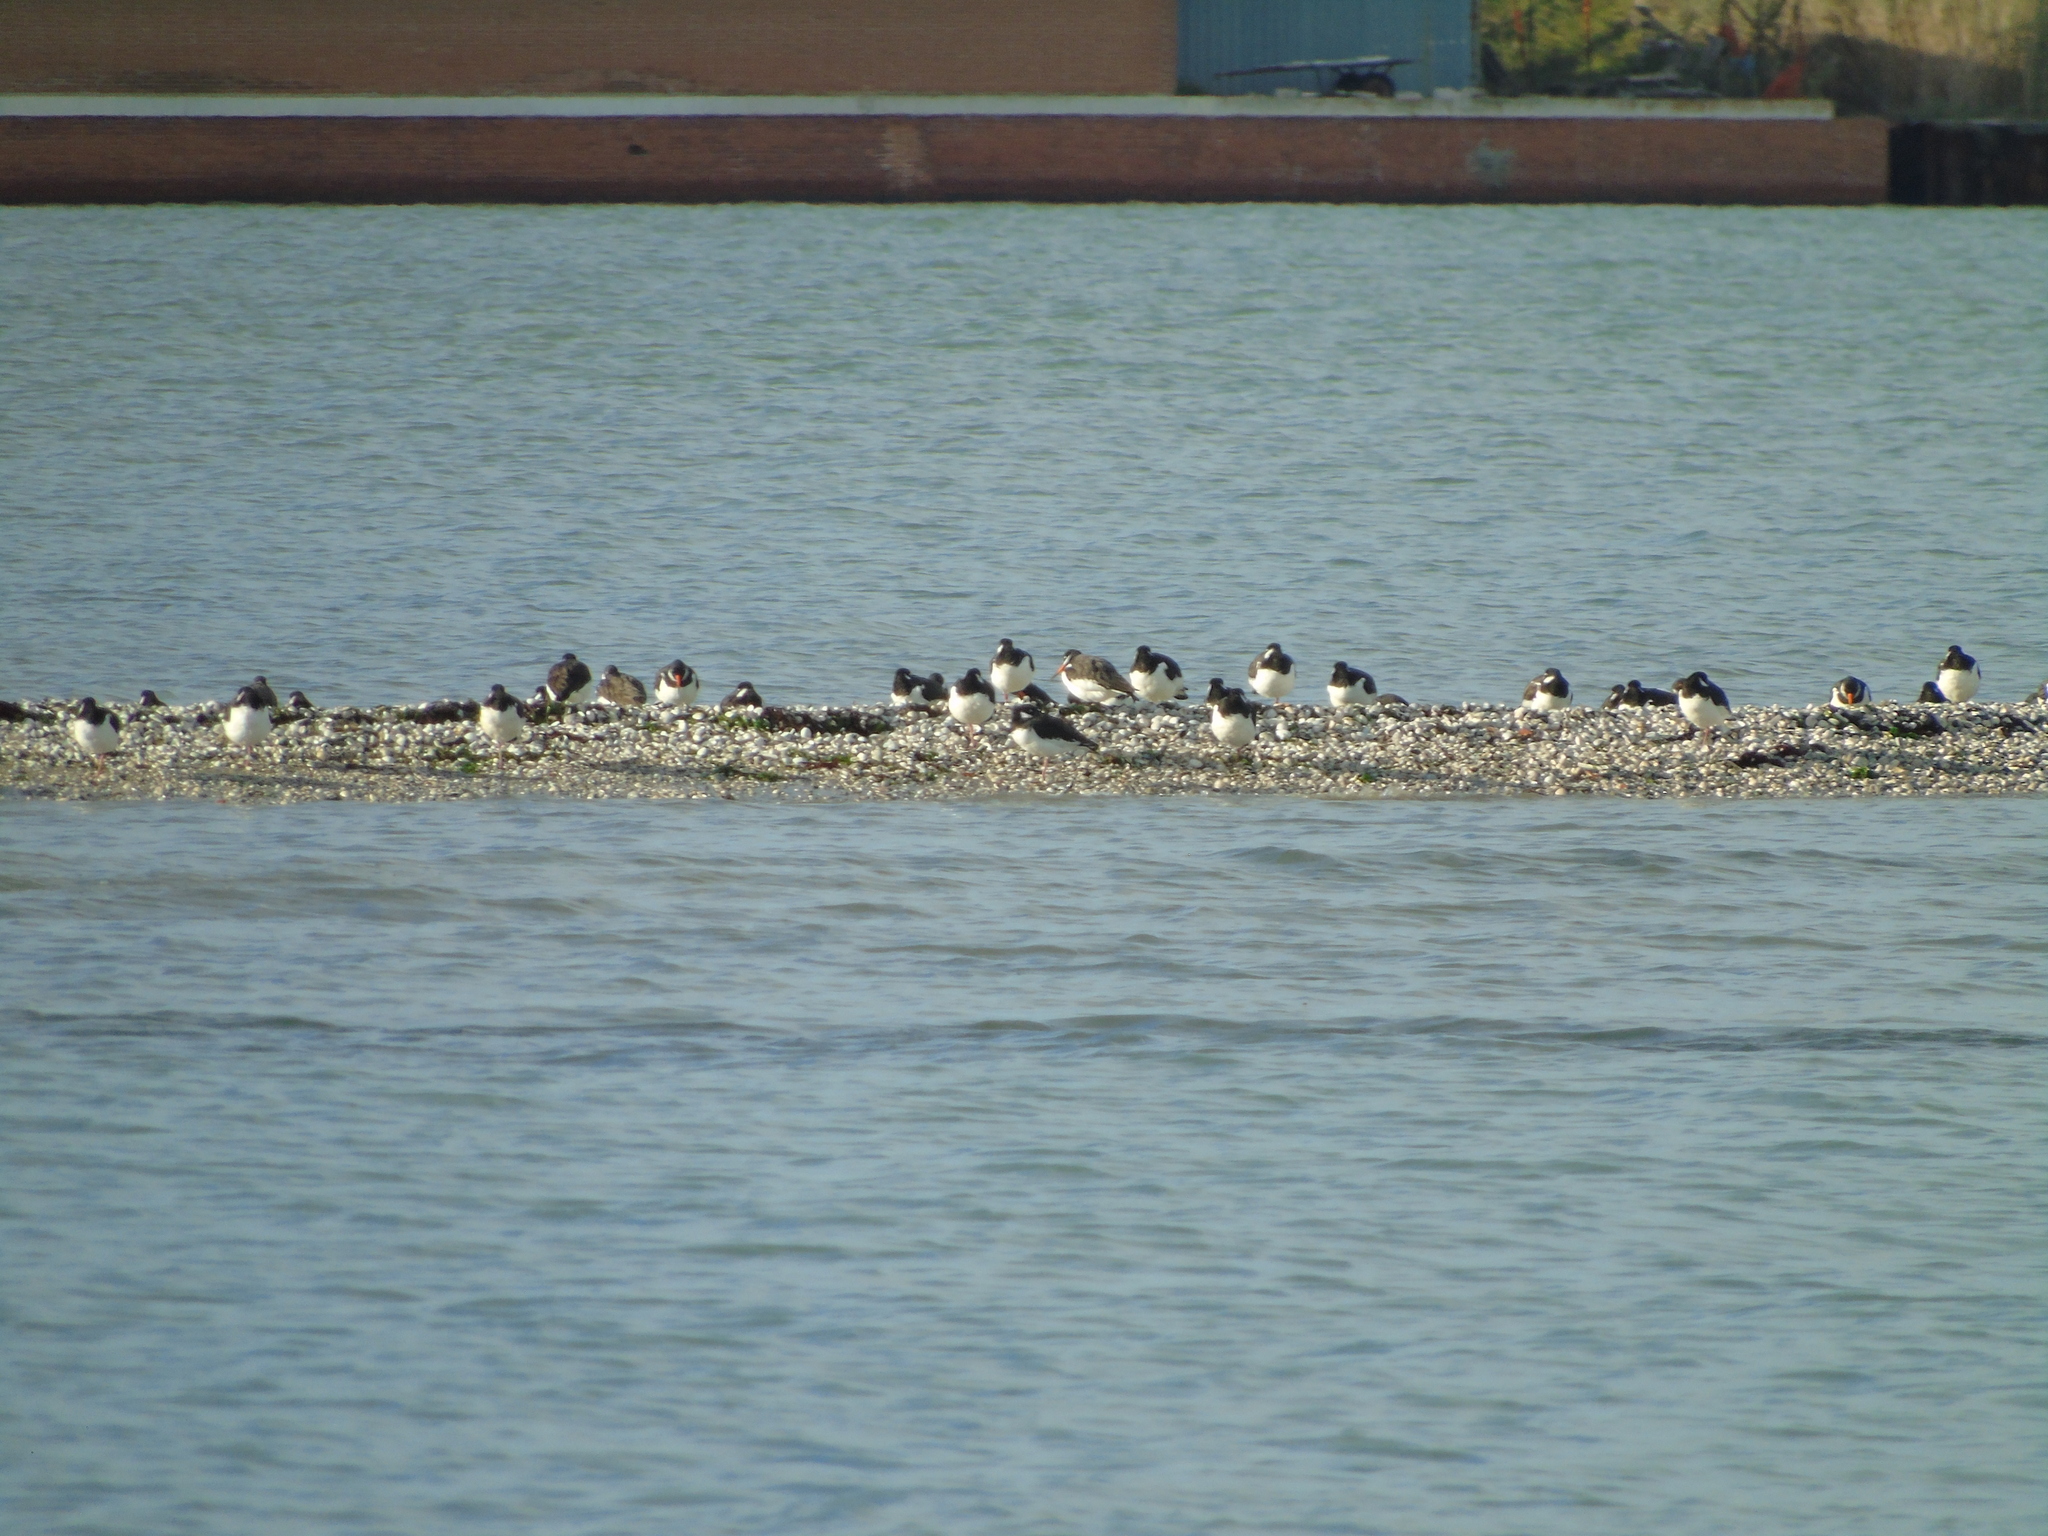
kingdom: Animalia
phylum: Chordata
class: Aves
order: Charadriiformes
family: Haematopodidae
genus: Haematopus
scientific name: Haematopus ostralegus
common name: Eurasian oystercatcher
